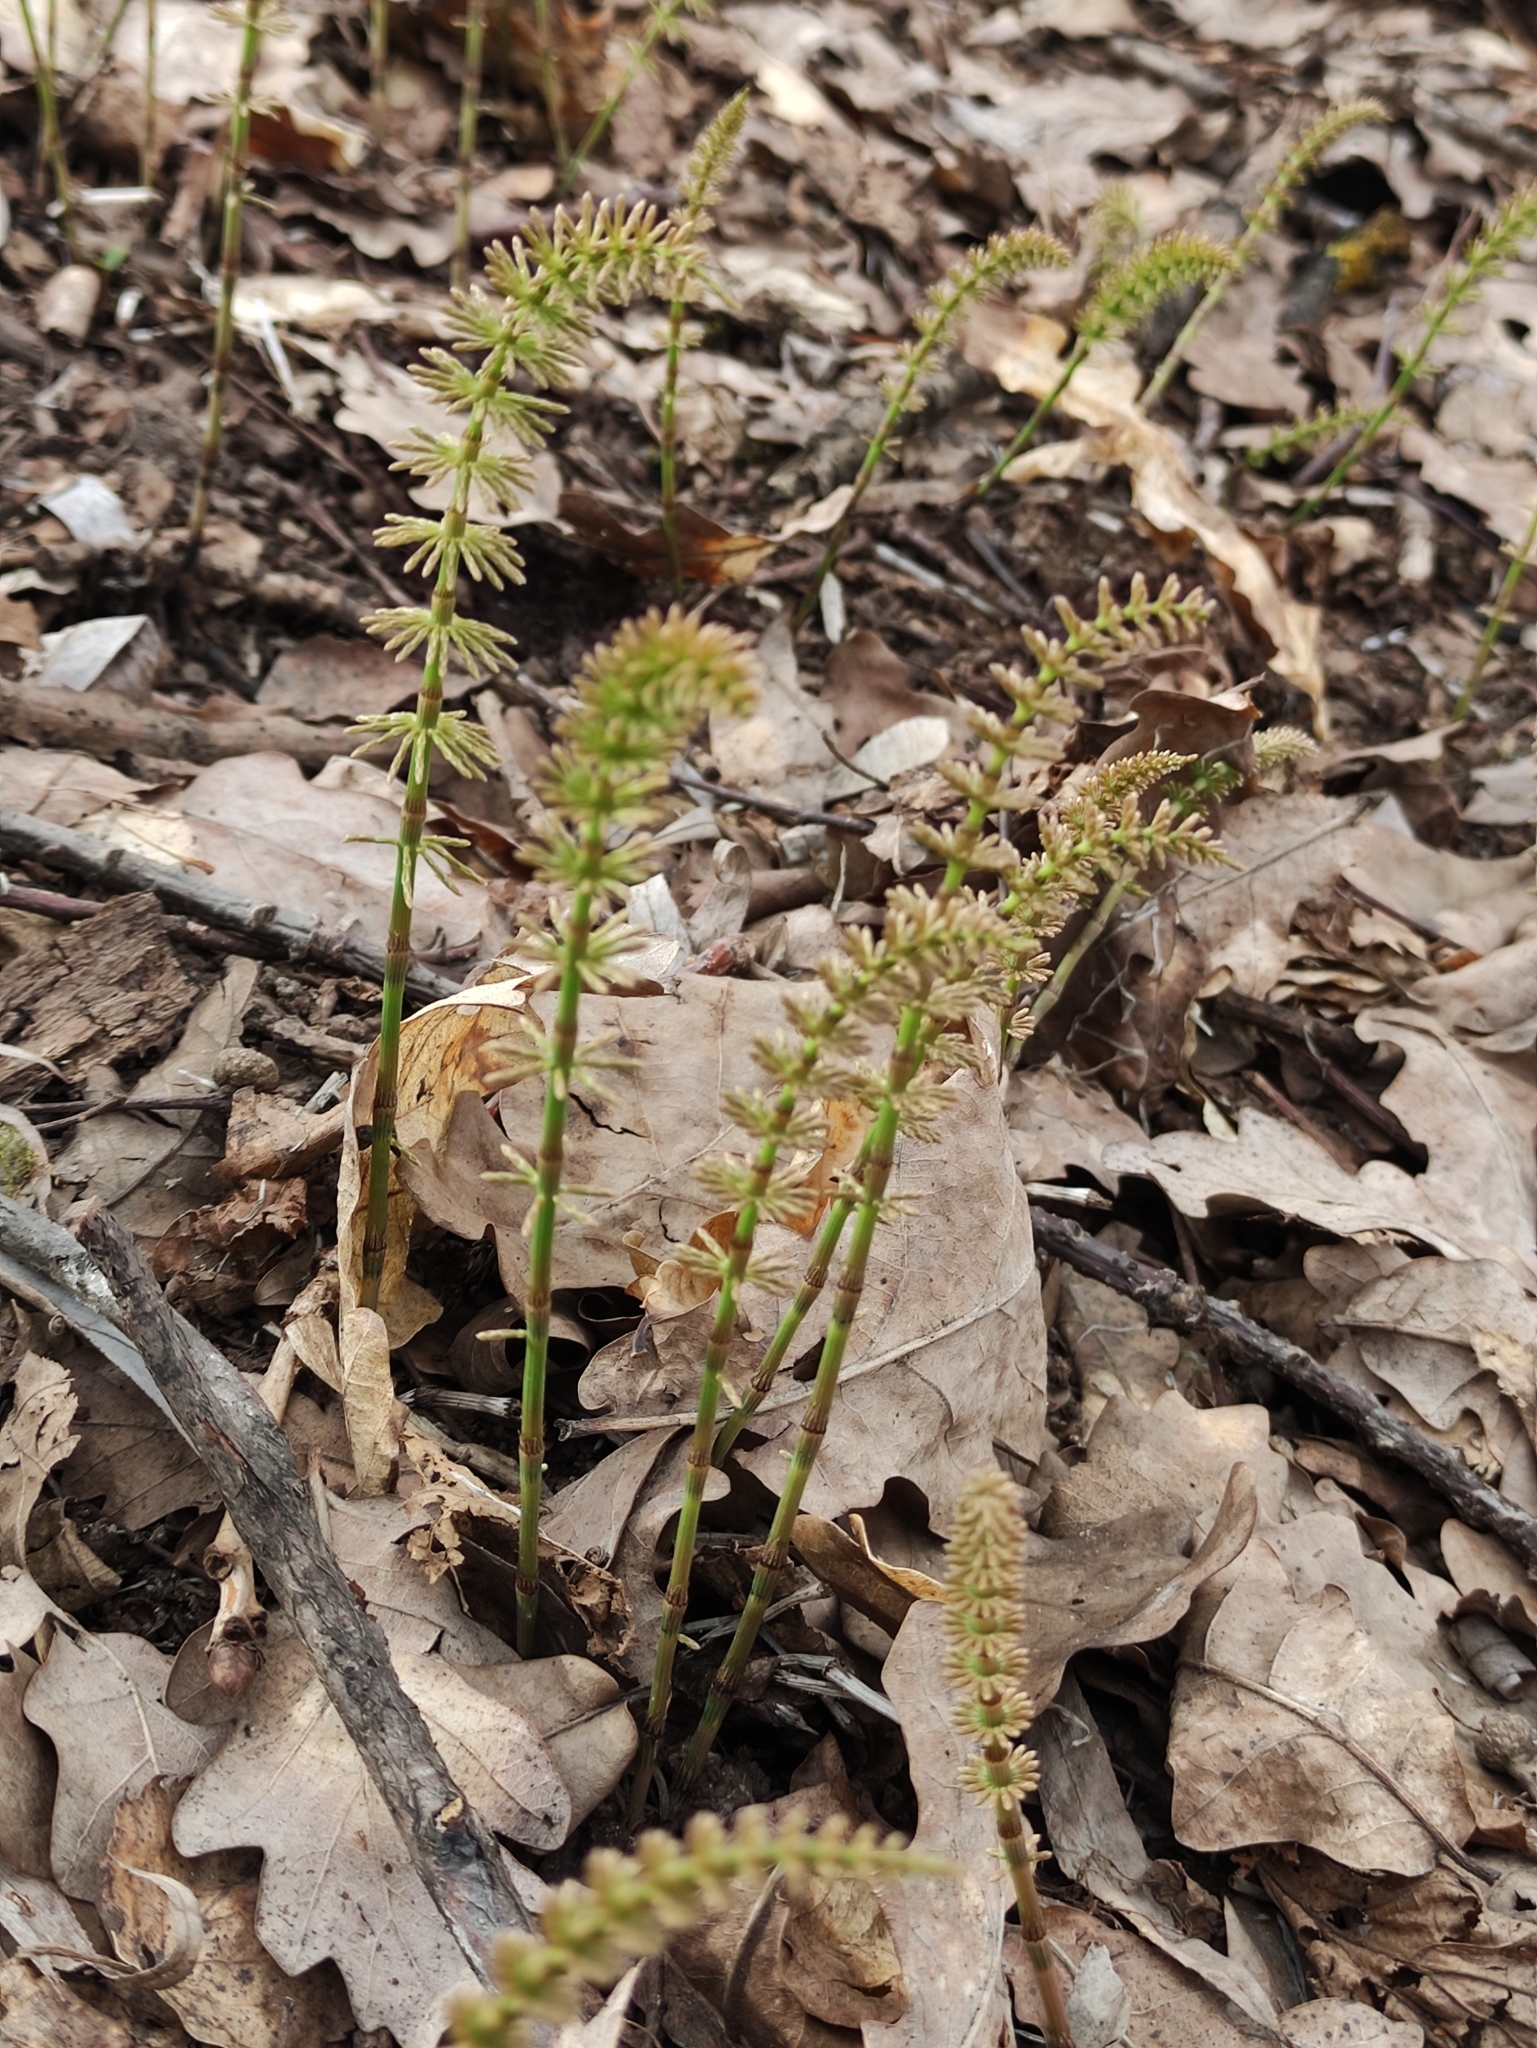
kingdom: Plantae
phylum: Tracheophyta
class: Polypodiopsida
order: Equisetales
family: Equisetaceae
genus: Equisetum
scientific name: Equisetum pratense
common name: Meadow horsetail
